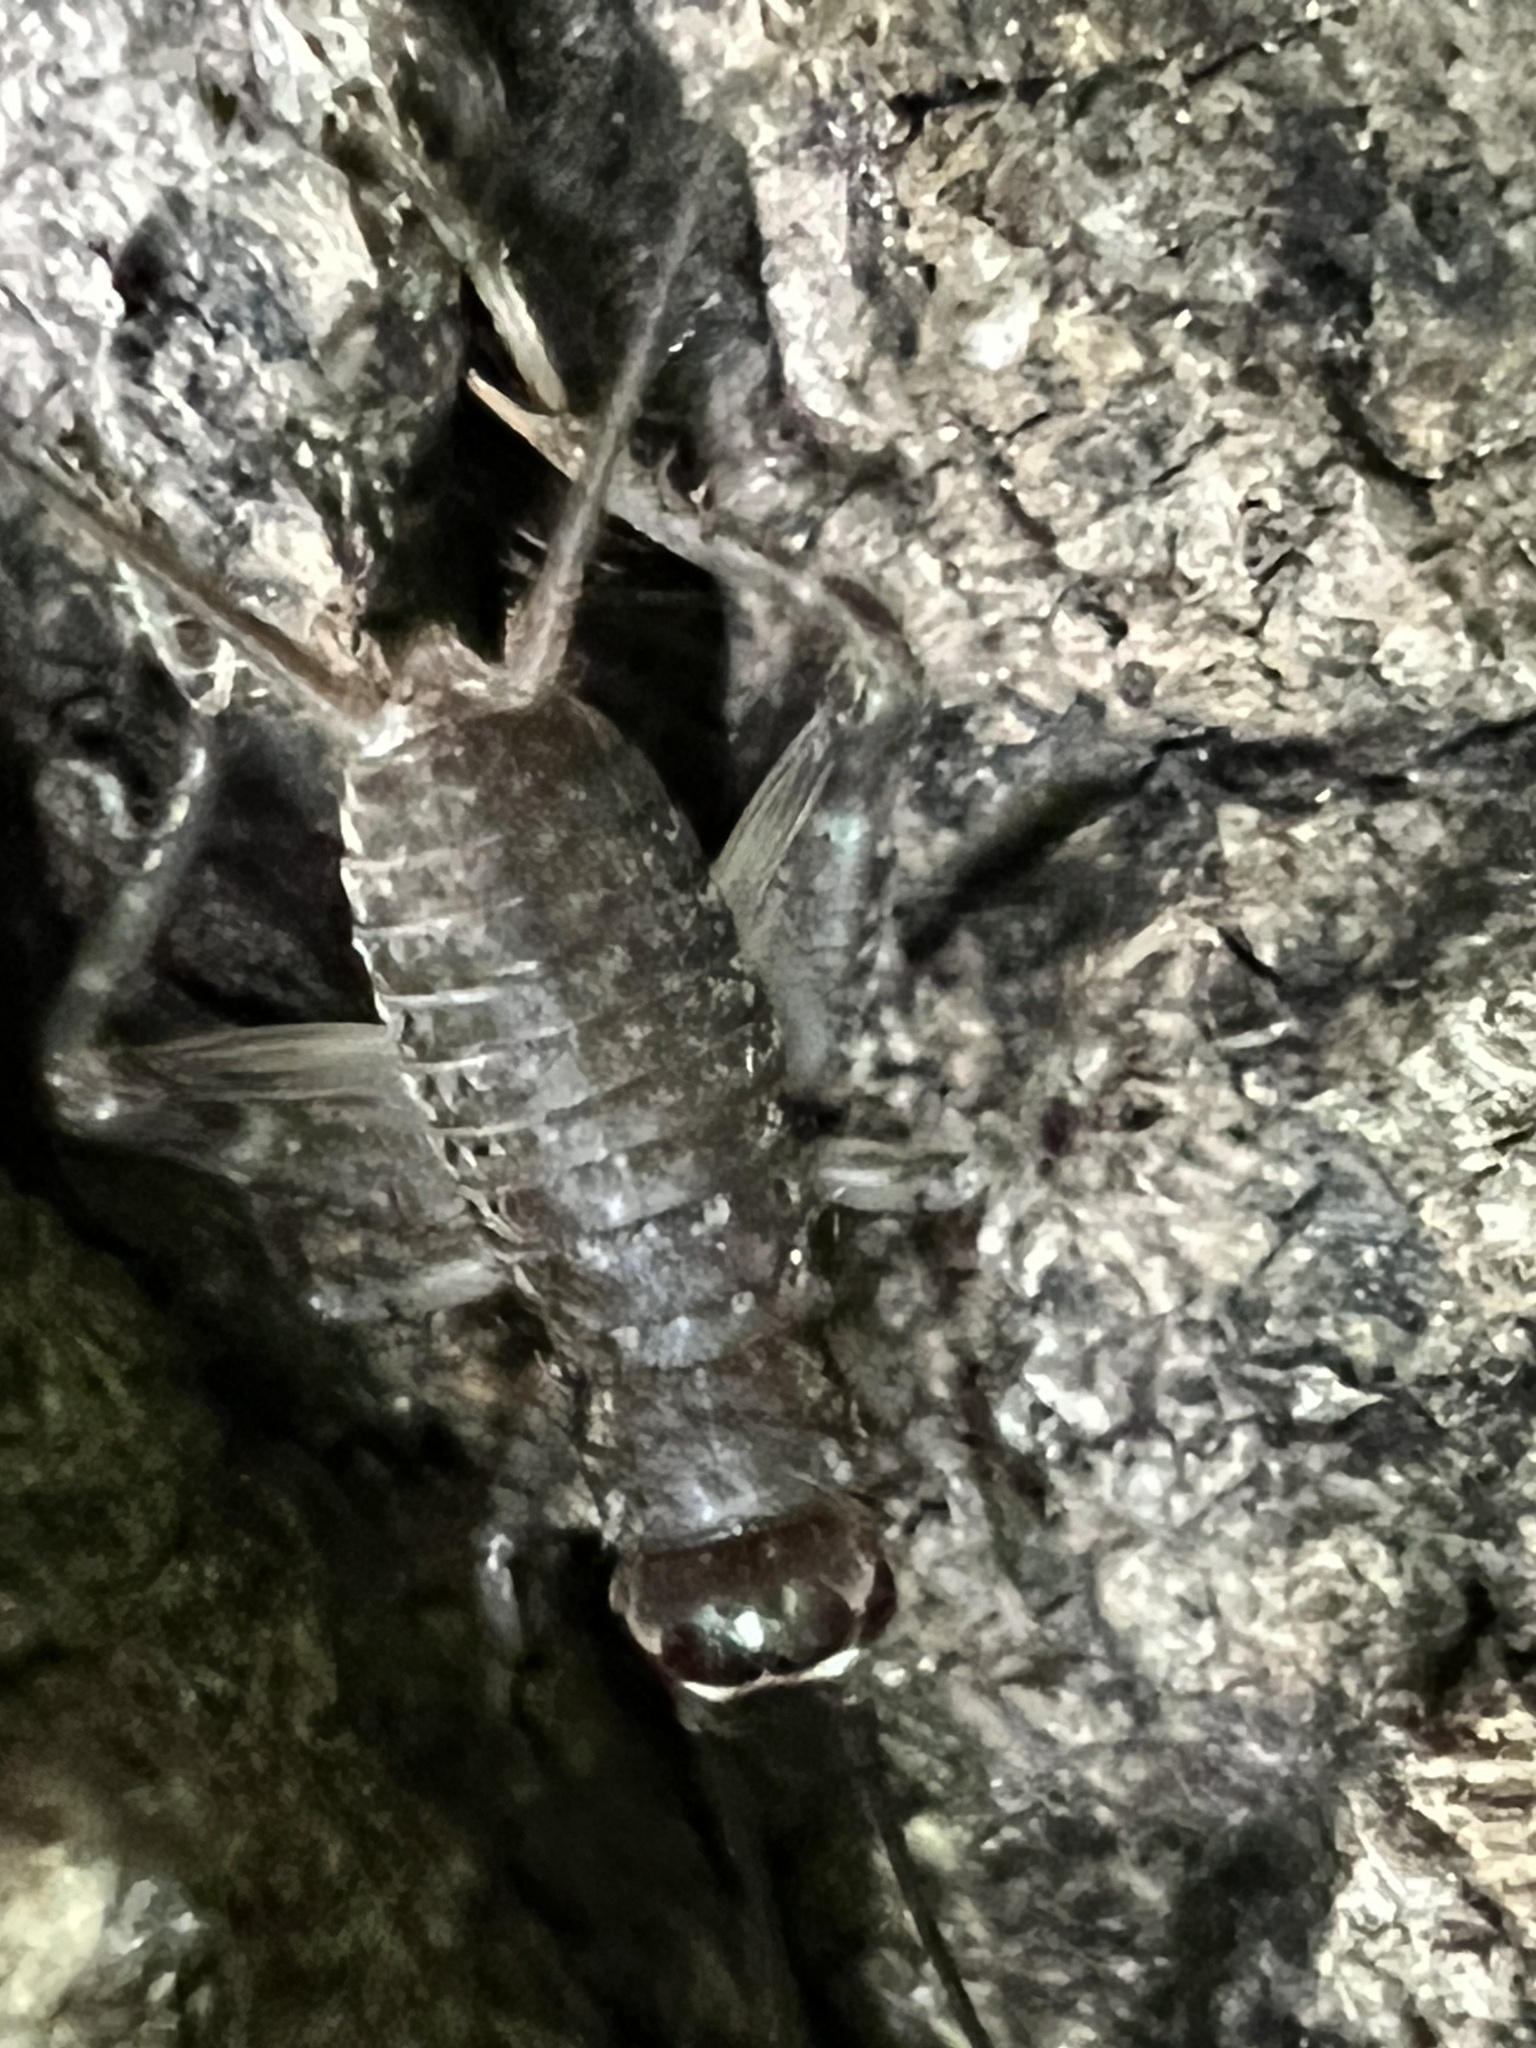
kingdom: Animalia
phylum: Arthropoda
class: Insecta
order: Orthoptera
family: Gryllidae
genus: Velarifictorus
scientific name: Velarifictorus micado
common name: Japanese burrowing cricket
